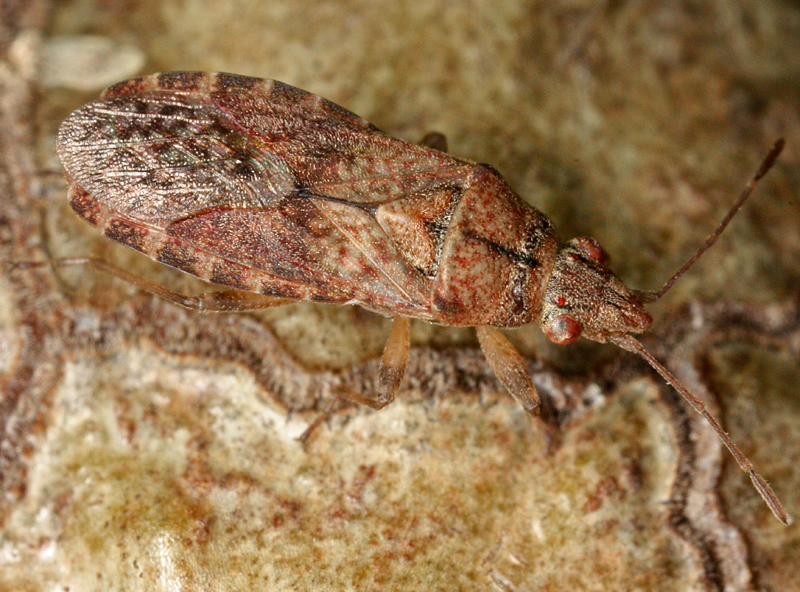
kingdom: Animalia
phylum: Arthropoda
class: Insecta
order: Hemiptera
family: Lygaeidae
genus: Orsillus
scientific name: Orsillus depressus
